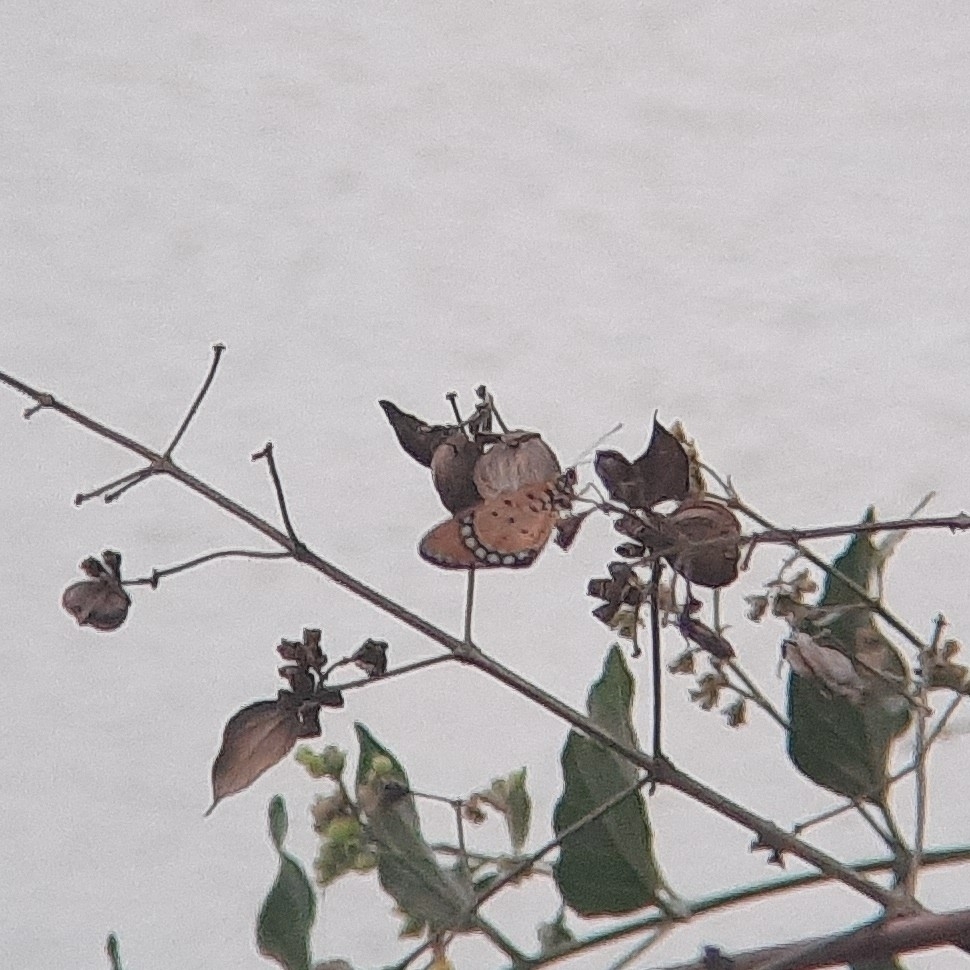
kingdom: Animalia
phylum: Arthropoda
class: Insecta
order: Lepidoptera
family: Nymphalidae
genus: Acraea
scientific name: Acraea terpsicore
